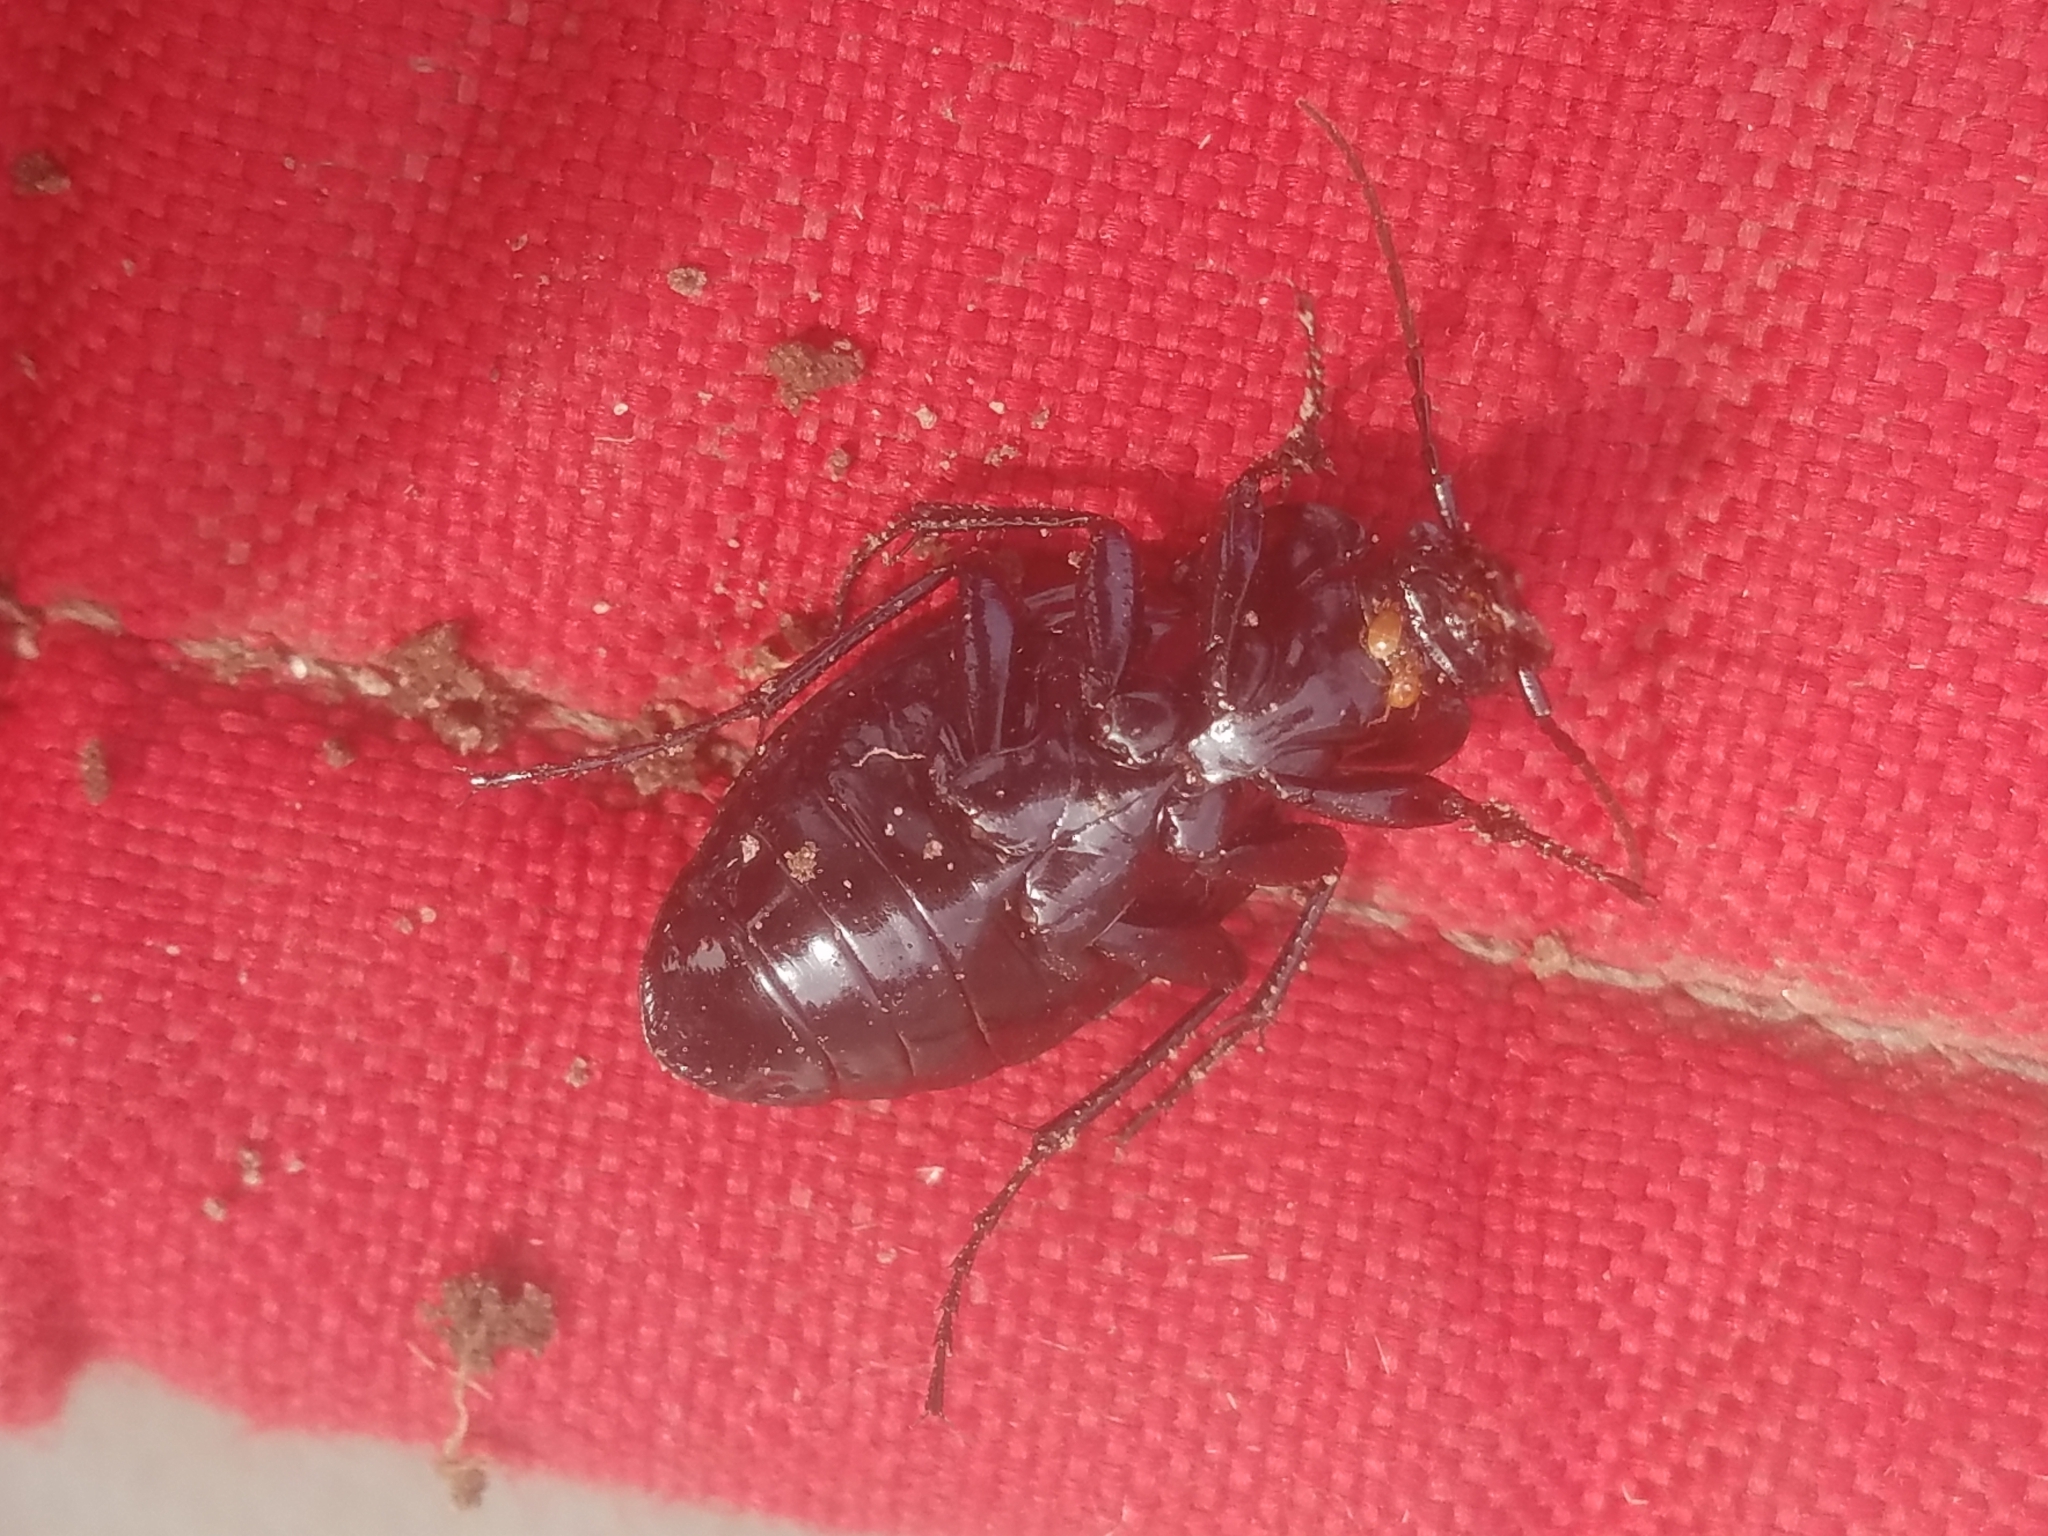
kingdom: Animalia
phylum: Arthropoda
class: Insecta
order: Coleoptera
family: Carabidae
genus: Carabus
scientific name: Carabus nemoralis
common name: European ground beetle
